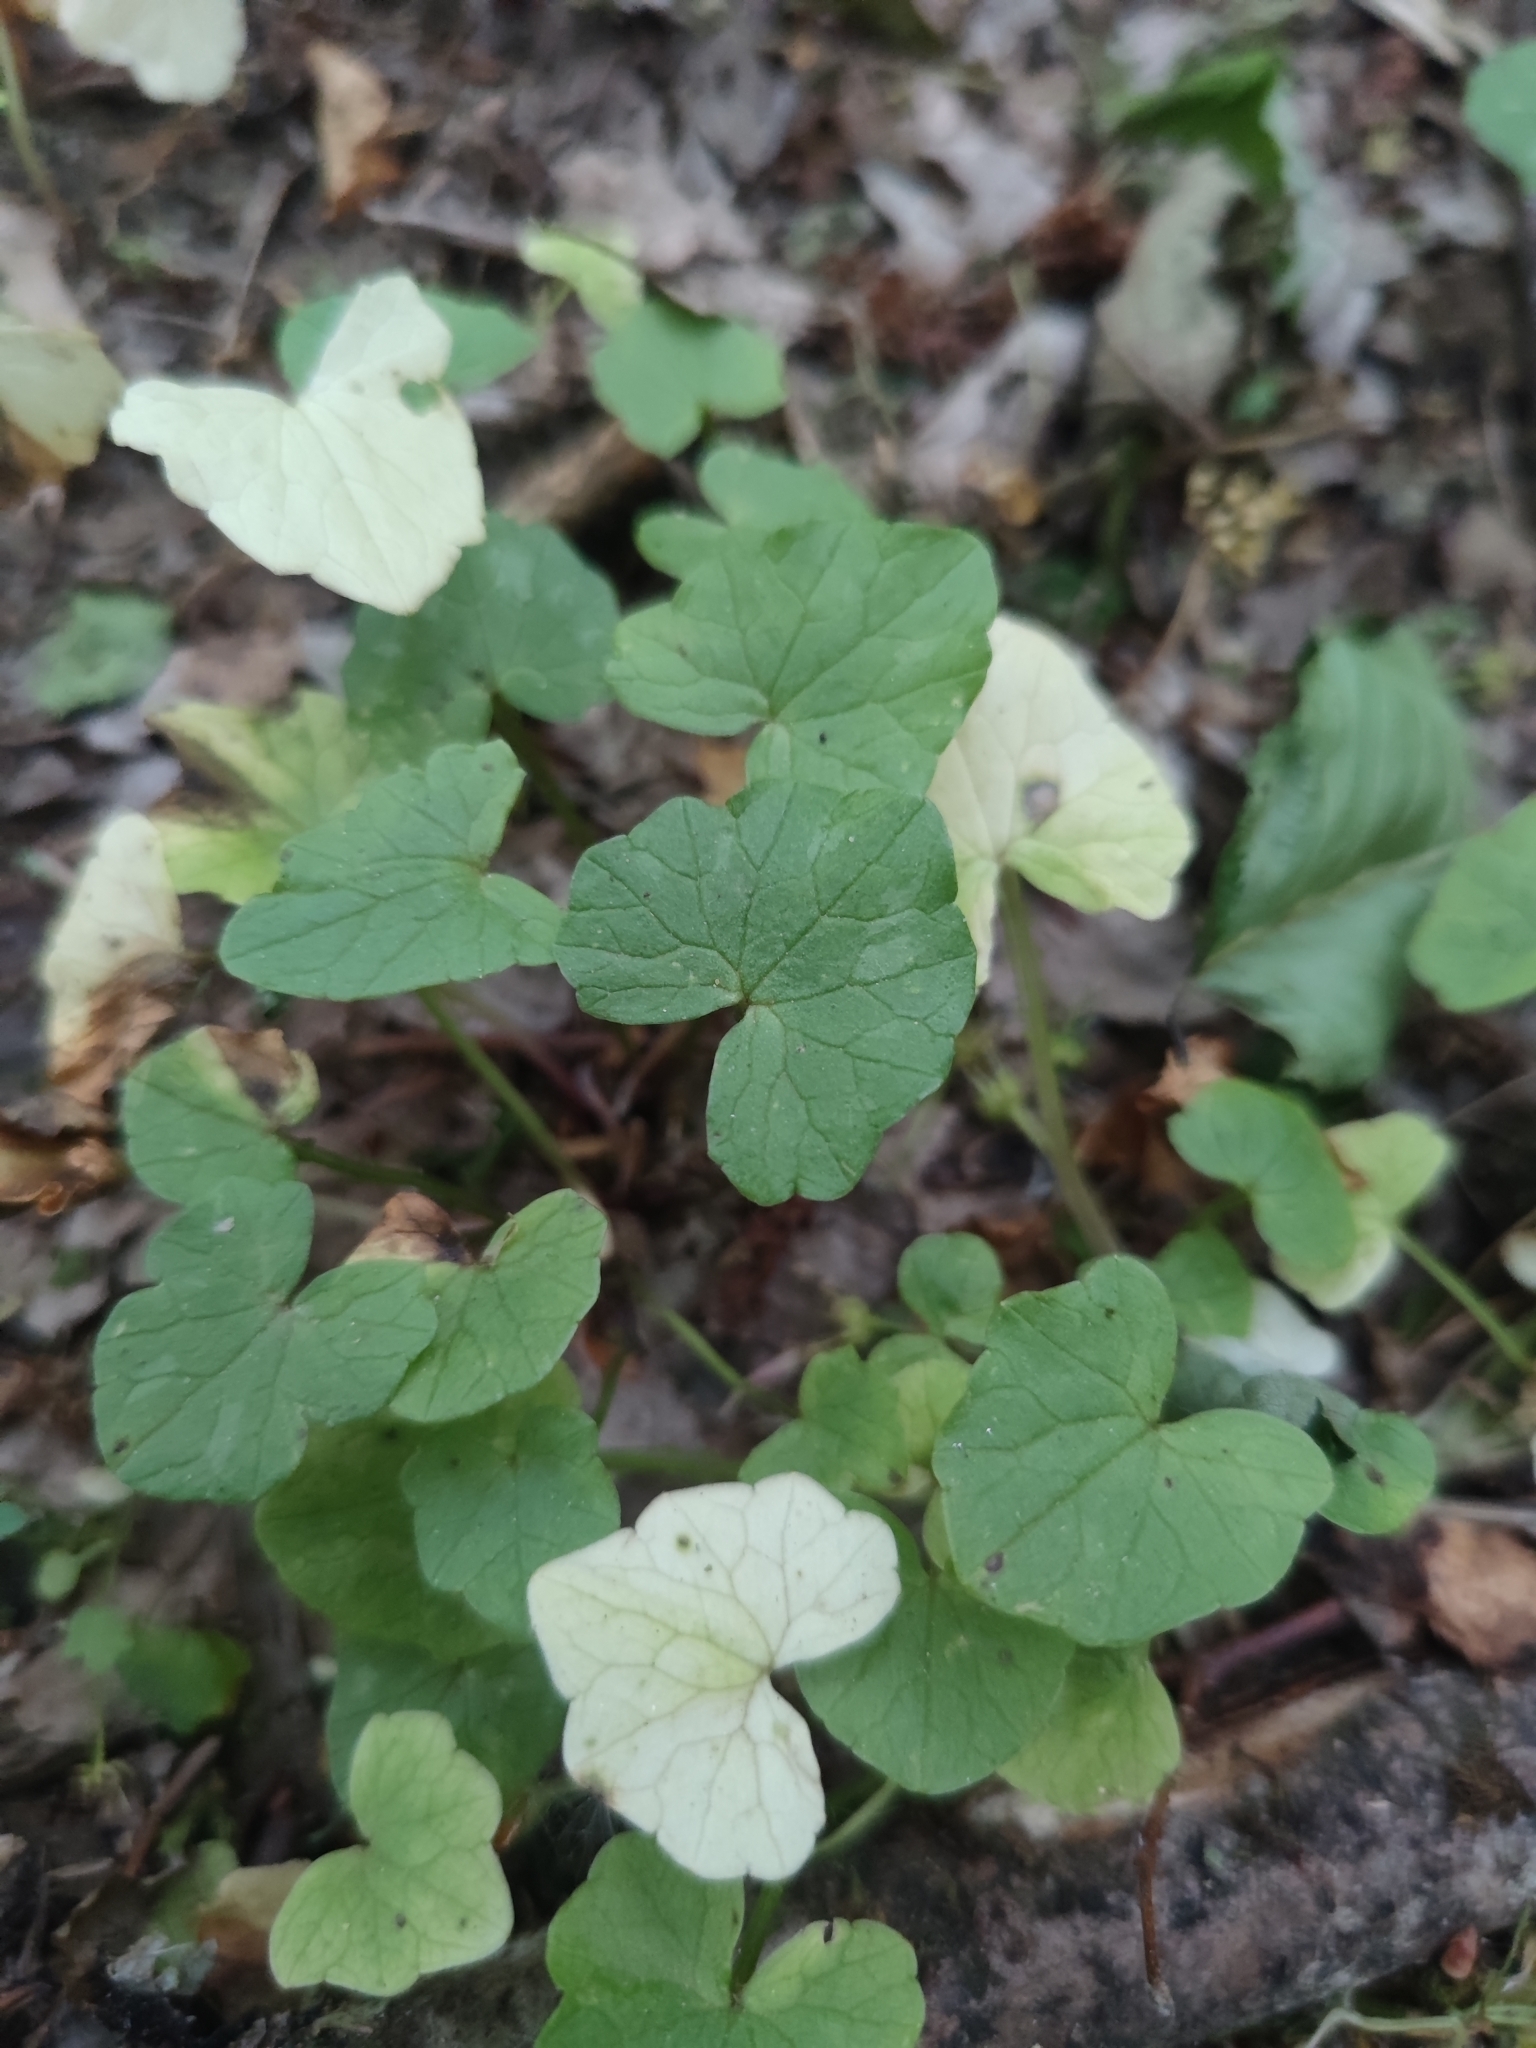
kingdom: Plantae
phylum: Tracheophyta
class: Magnoliopsida
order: Ranunculales
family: Ranunculaceae
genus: Ficaria
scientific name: Ficaria verna
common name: Lesser celandine
